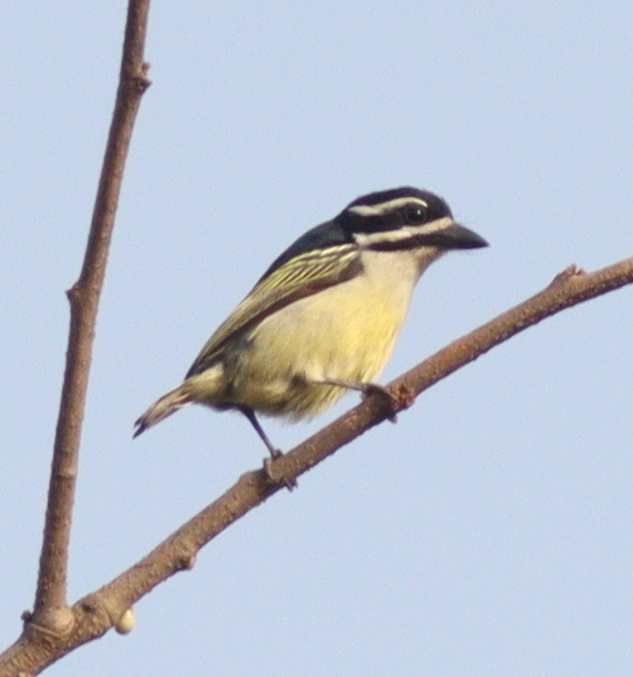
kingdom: Animalia
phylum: Chordata
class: Aves
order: Piciformes
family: Lybiidae
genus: Pogoniulus
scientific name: Pogoniulus bilineatus
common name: Yellow-rumped tinkerbird
